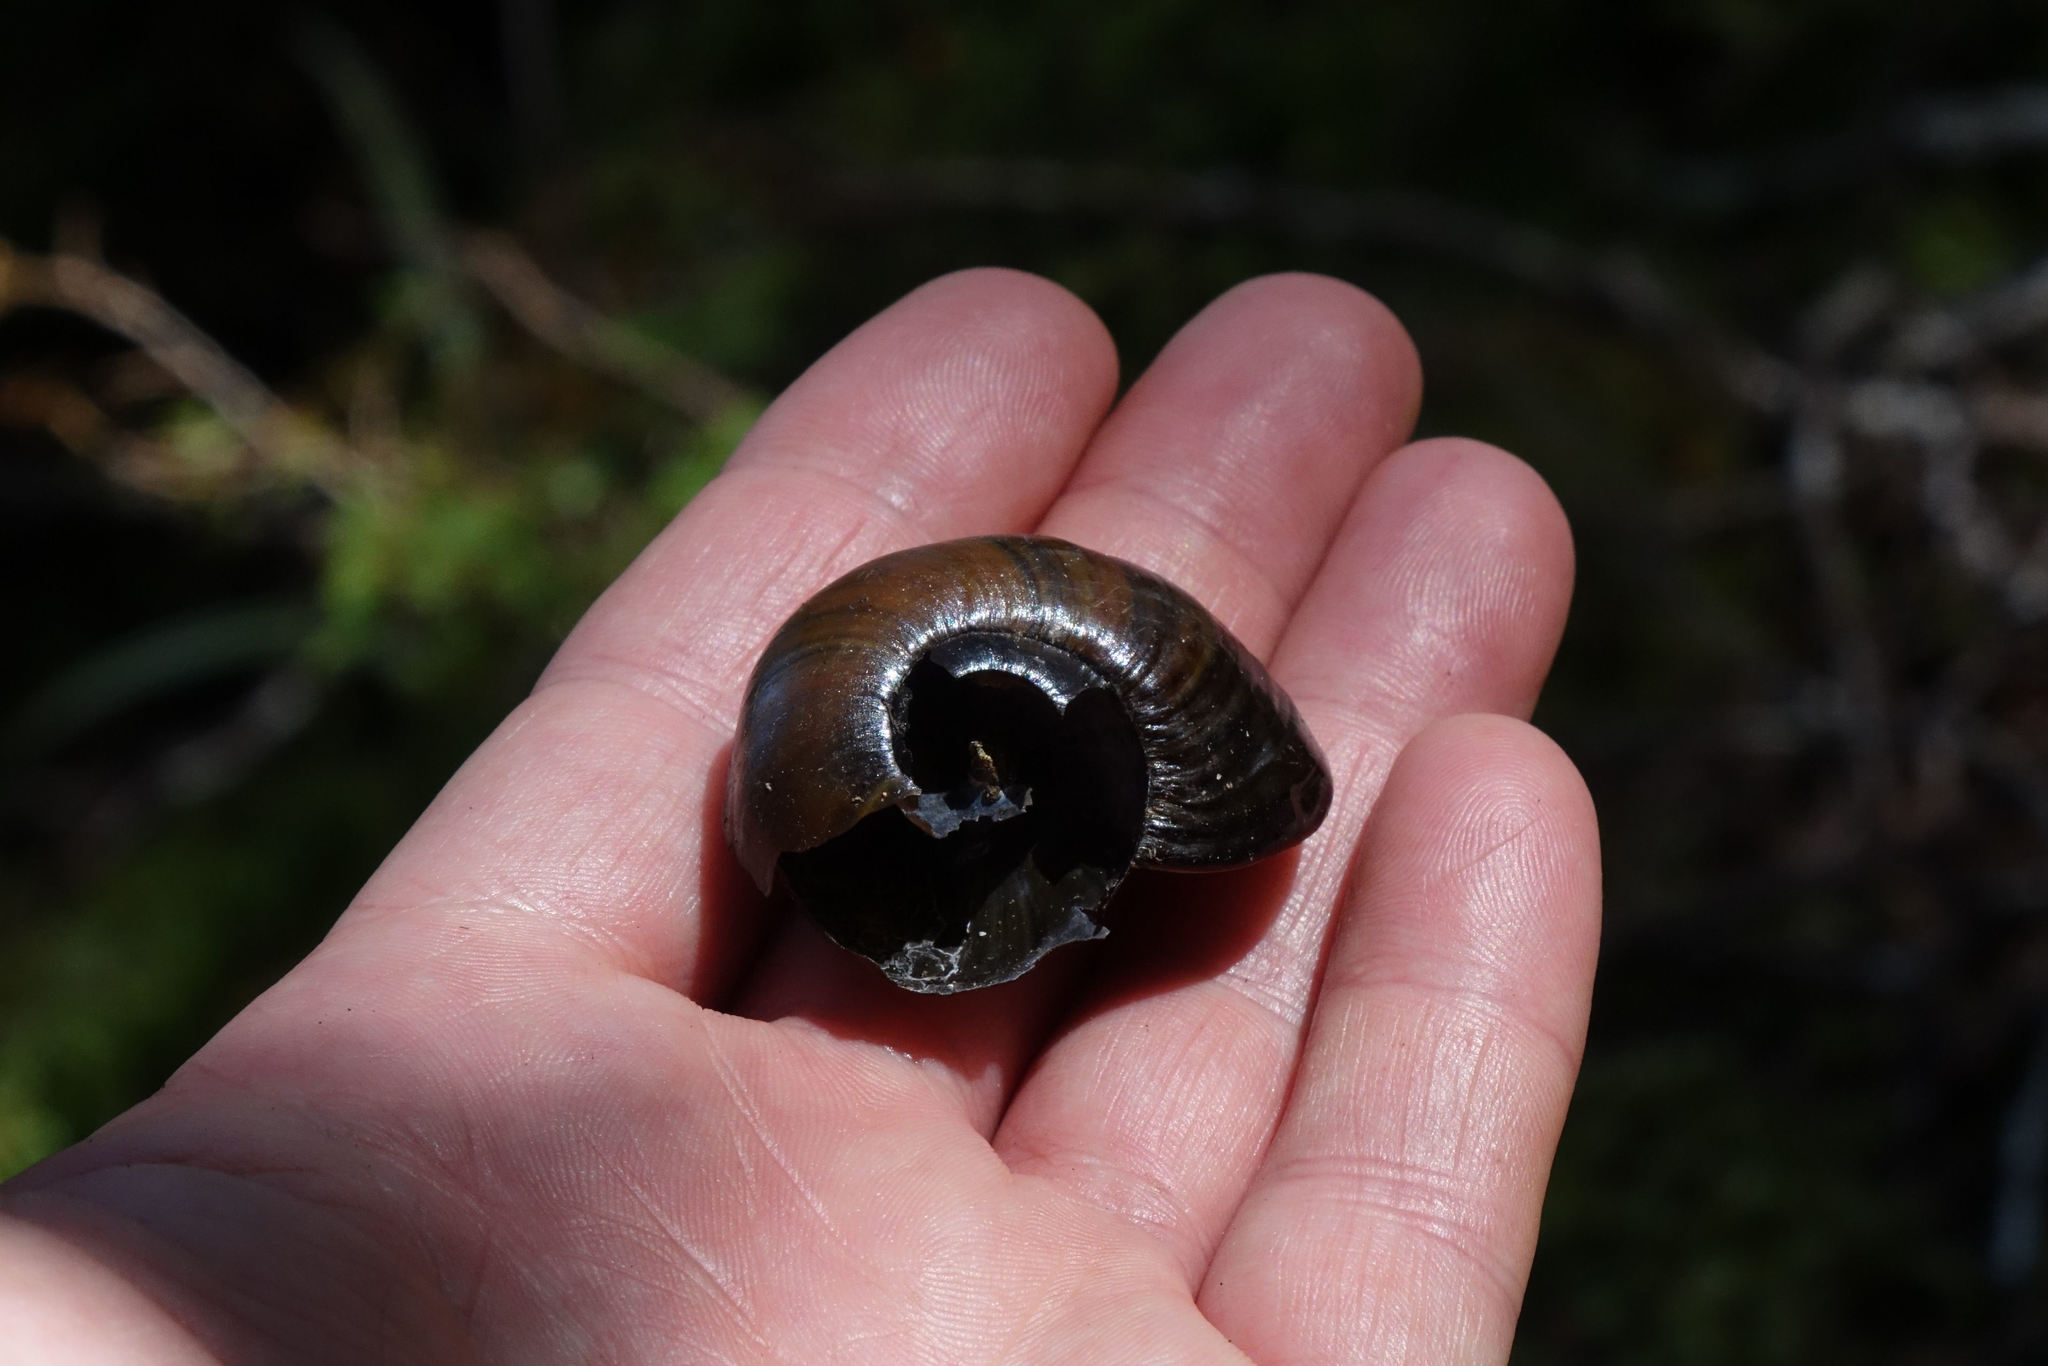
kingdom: Animalia
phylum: Mollusca
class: Gastropoda
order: Stylommatophora
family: Rhytididae
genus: Powelliphanta
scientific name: Powelliphanta spedeni
